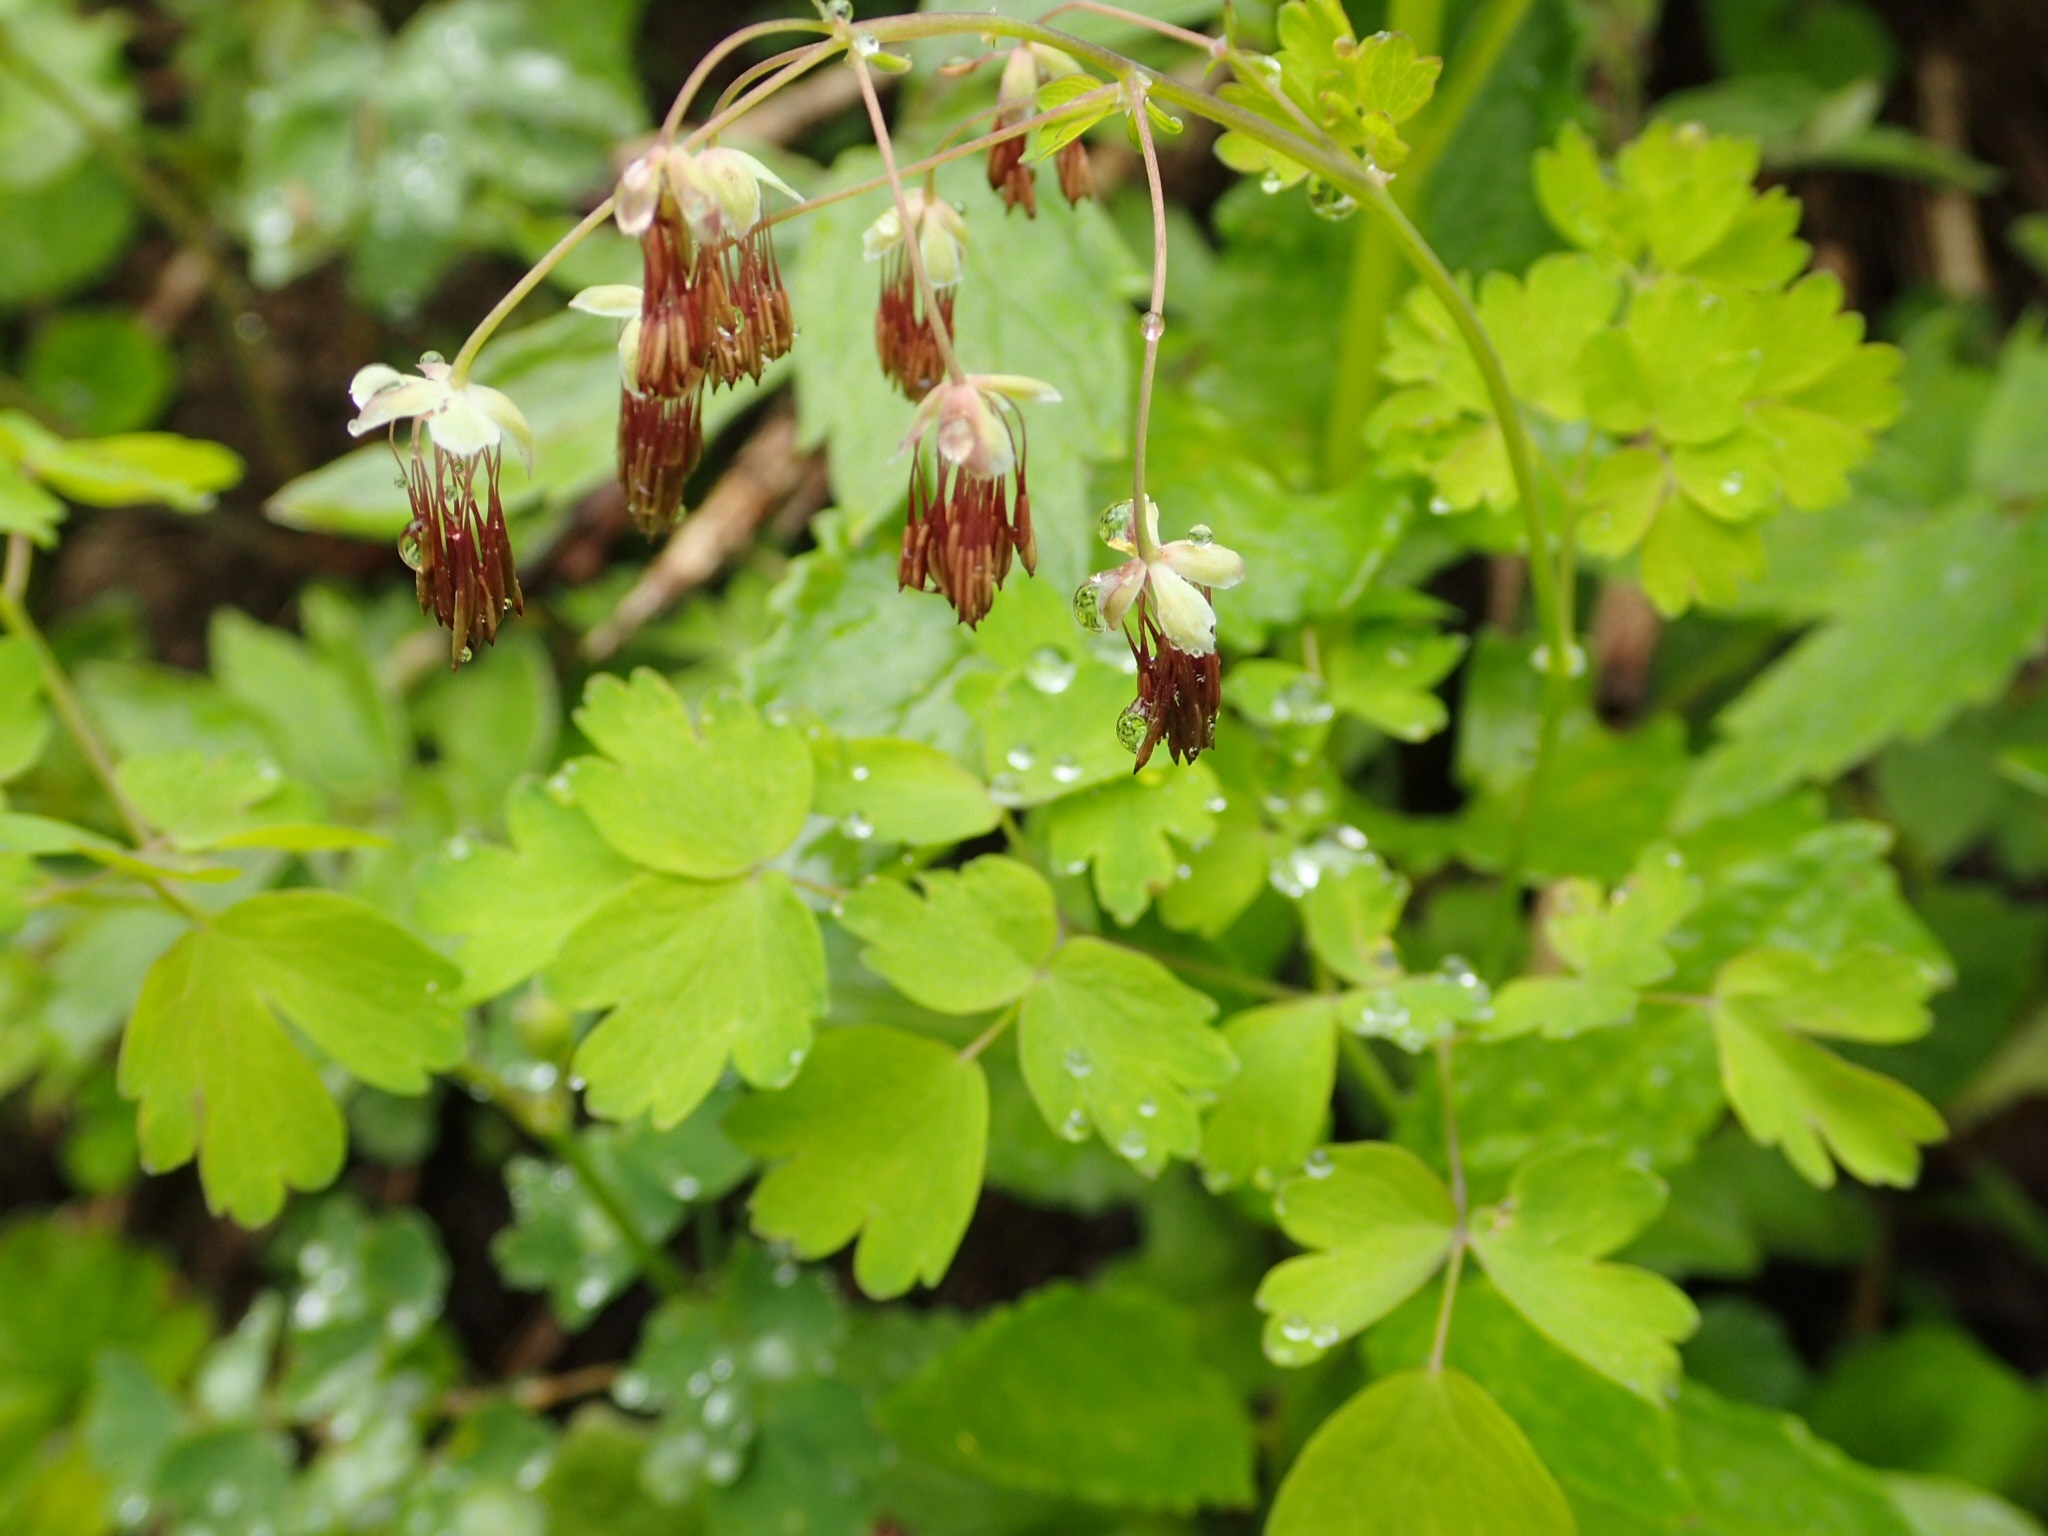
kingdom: Plantae
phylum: Tracheophyta
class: Magnoliopsida
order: Ranunculales
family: Ranunculaceae
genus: Thalictrum
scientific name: Thalictrum occidentale
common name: Western meadow-rue
